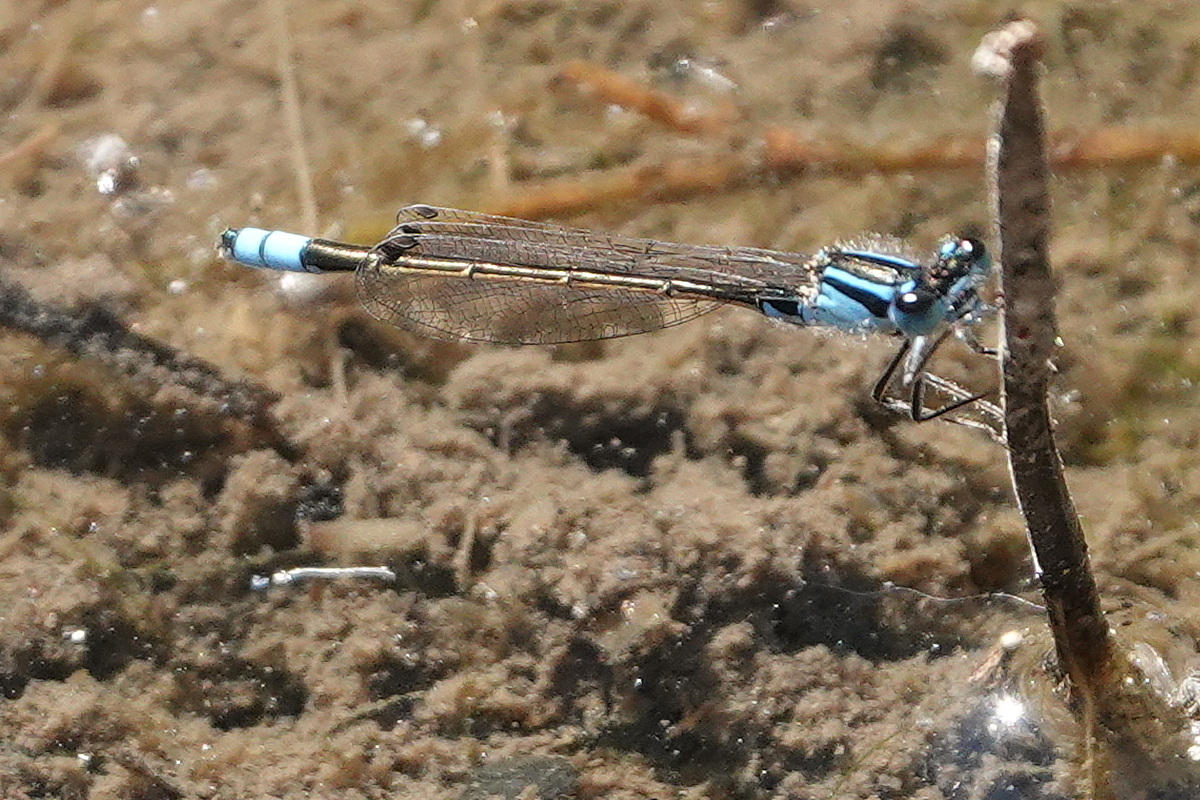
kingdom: Animalia
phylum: Arthropoda
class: Insecta
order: Odonata
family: Coenagrionidae
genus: Ischnura
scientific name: Ischnura heterosticta
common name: Common bluetail
